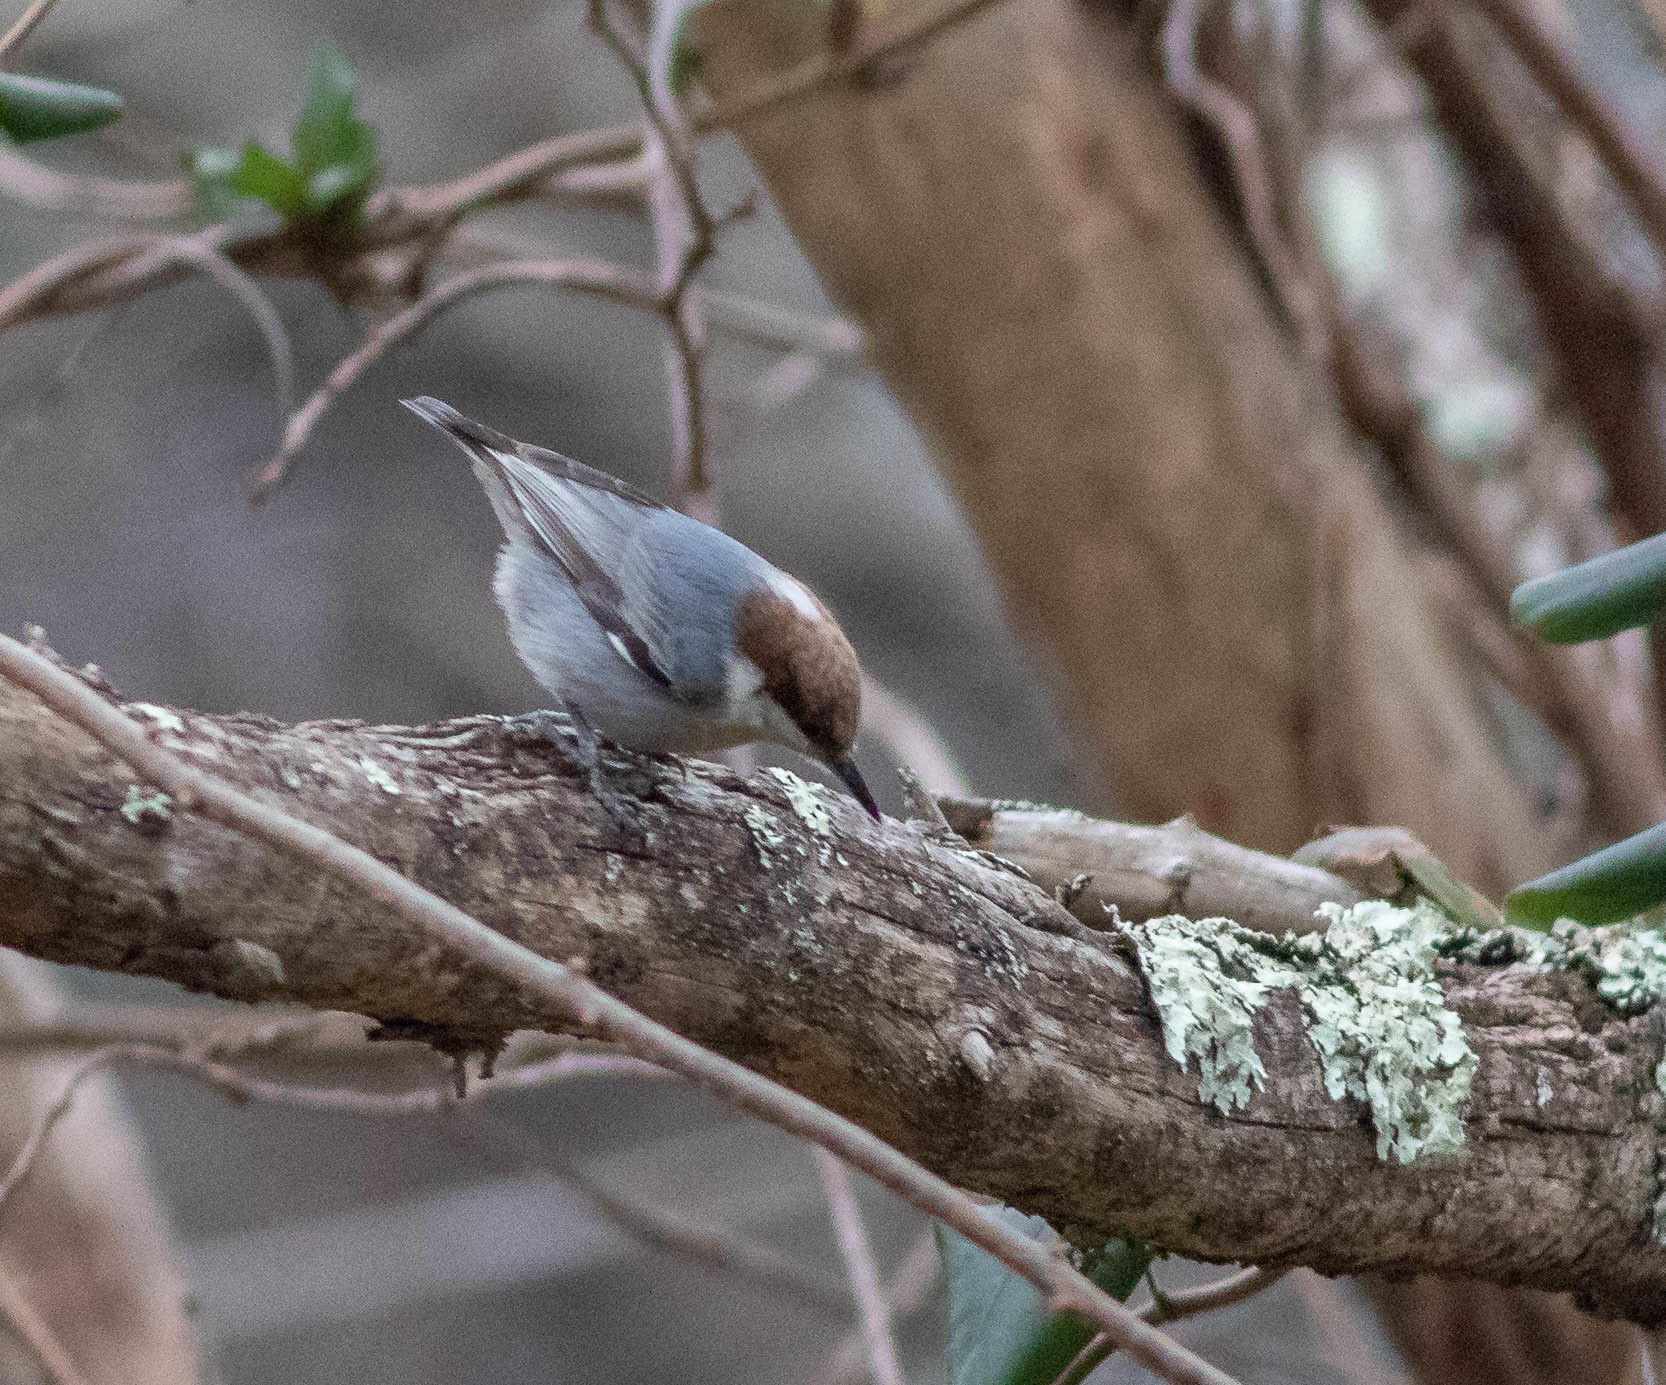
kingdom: Animalia
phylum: Chordata
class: Aves
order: Passeriformes
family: Sittidae
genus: Sitta
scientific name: Sitta pusilla
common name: Brown-headed nuthatch
